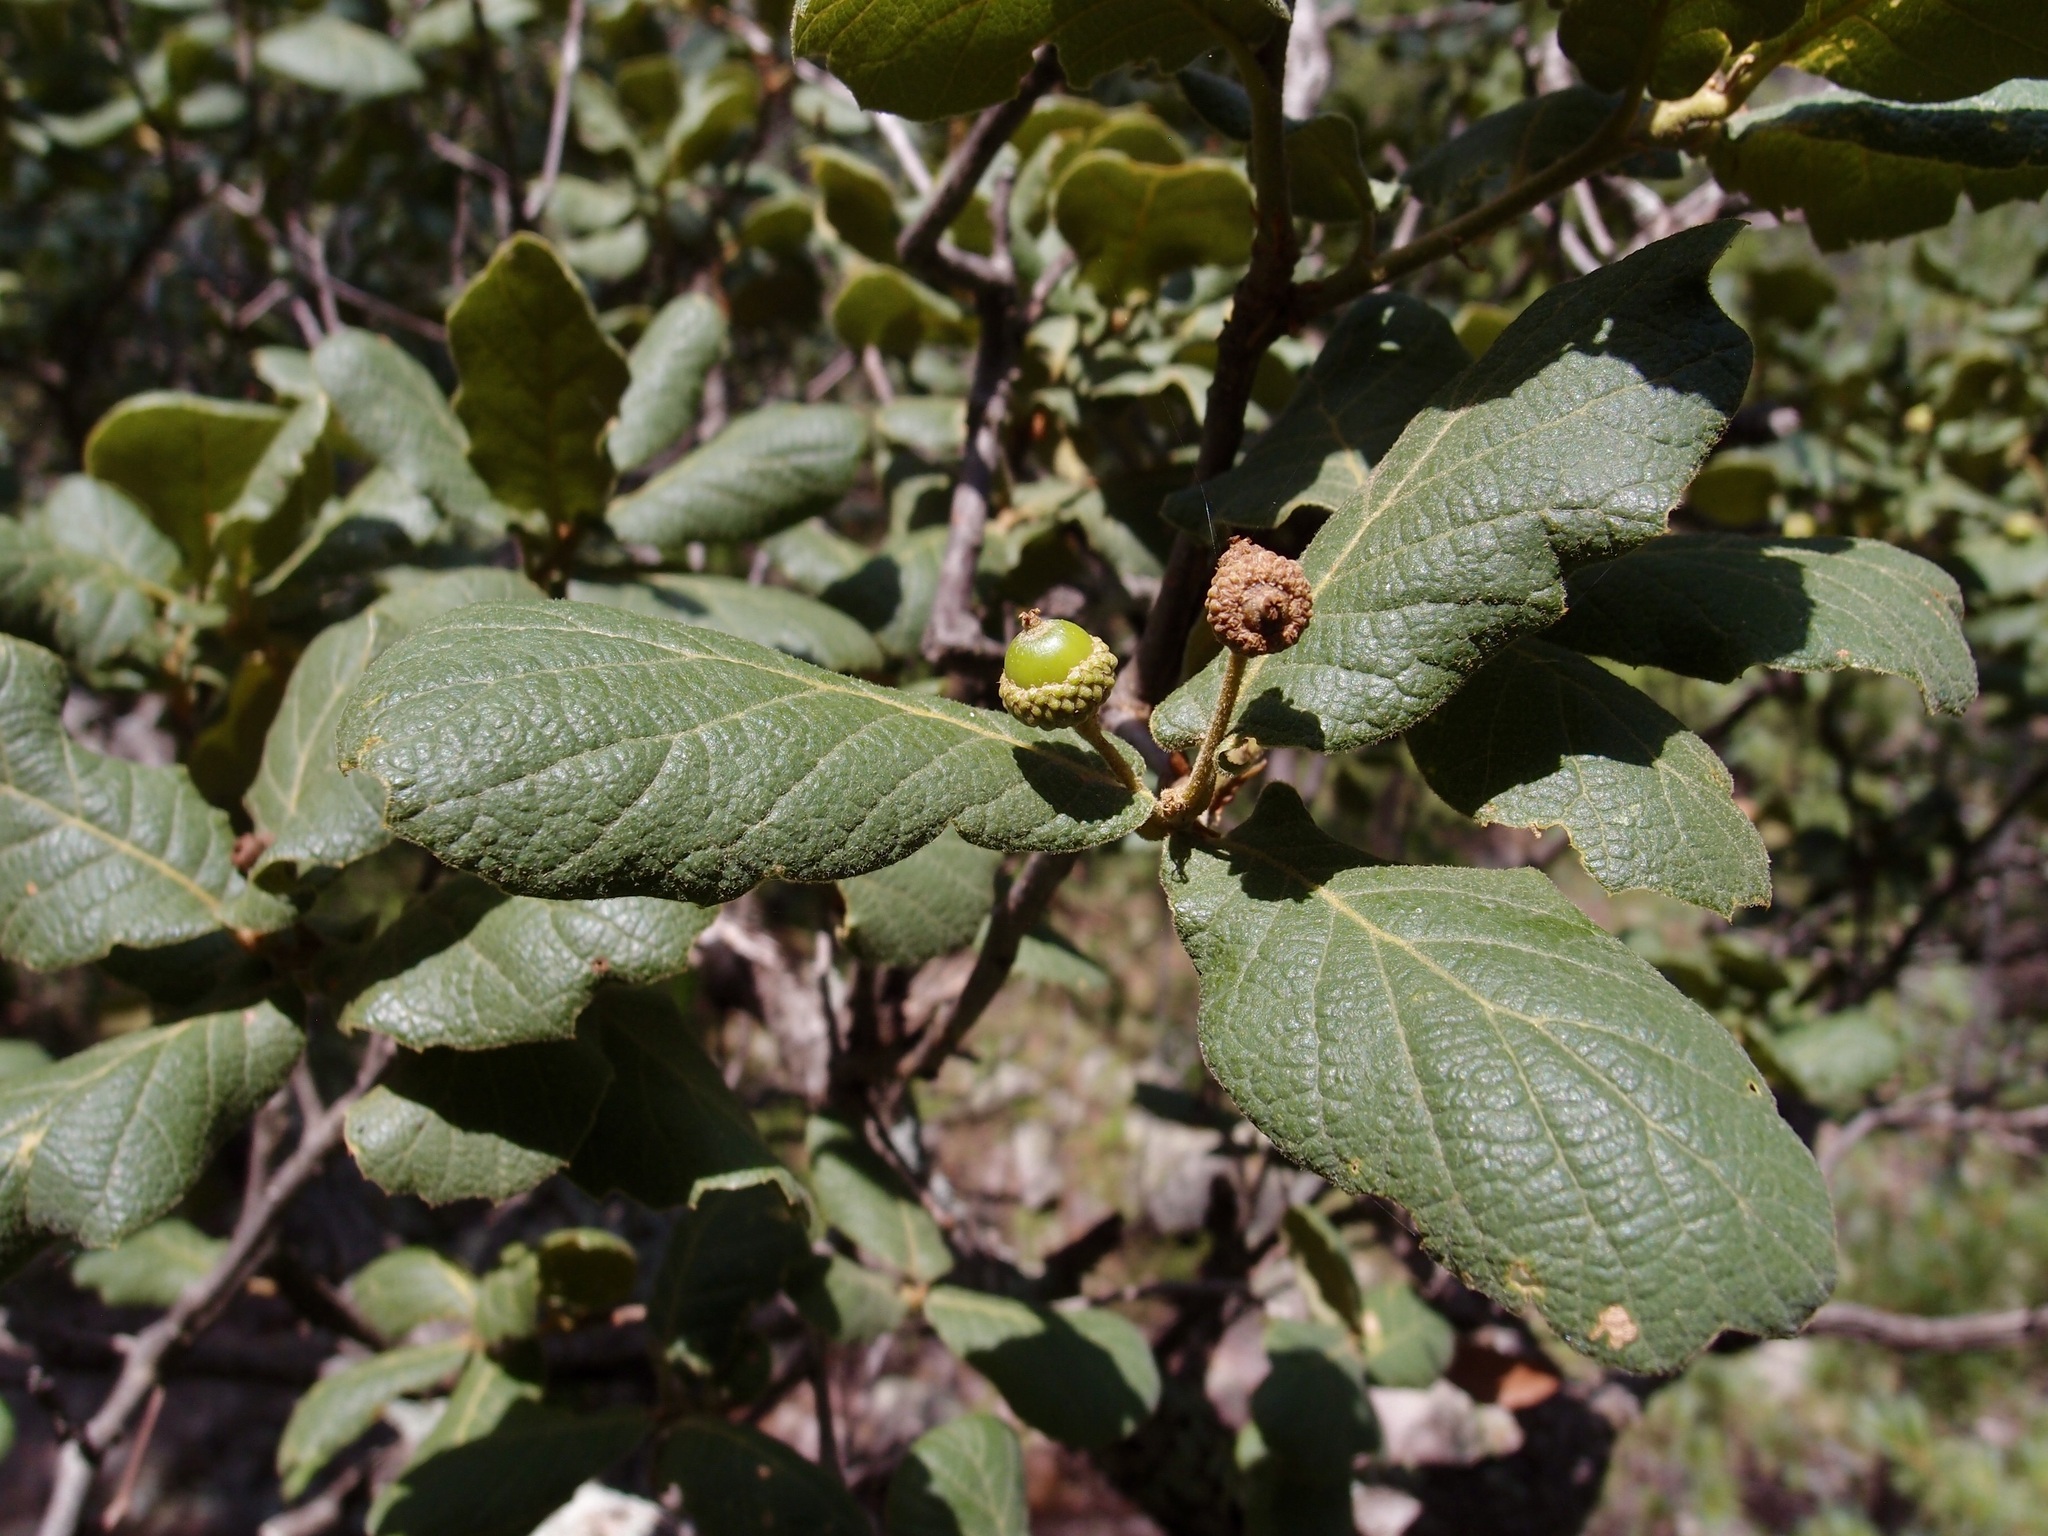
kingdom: Plantae
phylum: Tracheophyta
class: Magnoliopsida
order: Fagales
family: Fagaceae
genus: Quercus
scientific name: Quercus rugosa
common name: Netleaf oak
